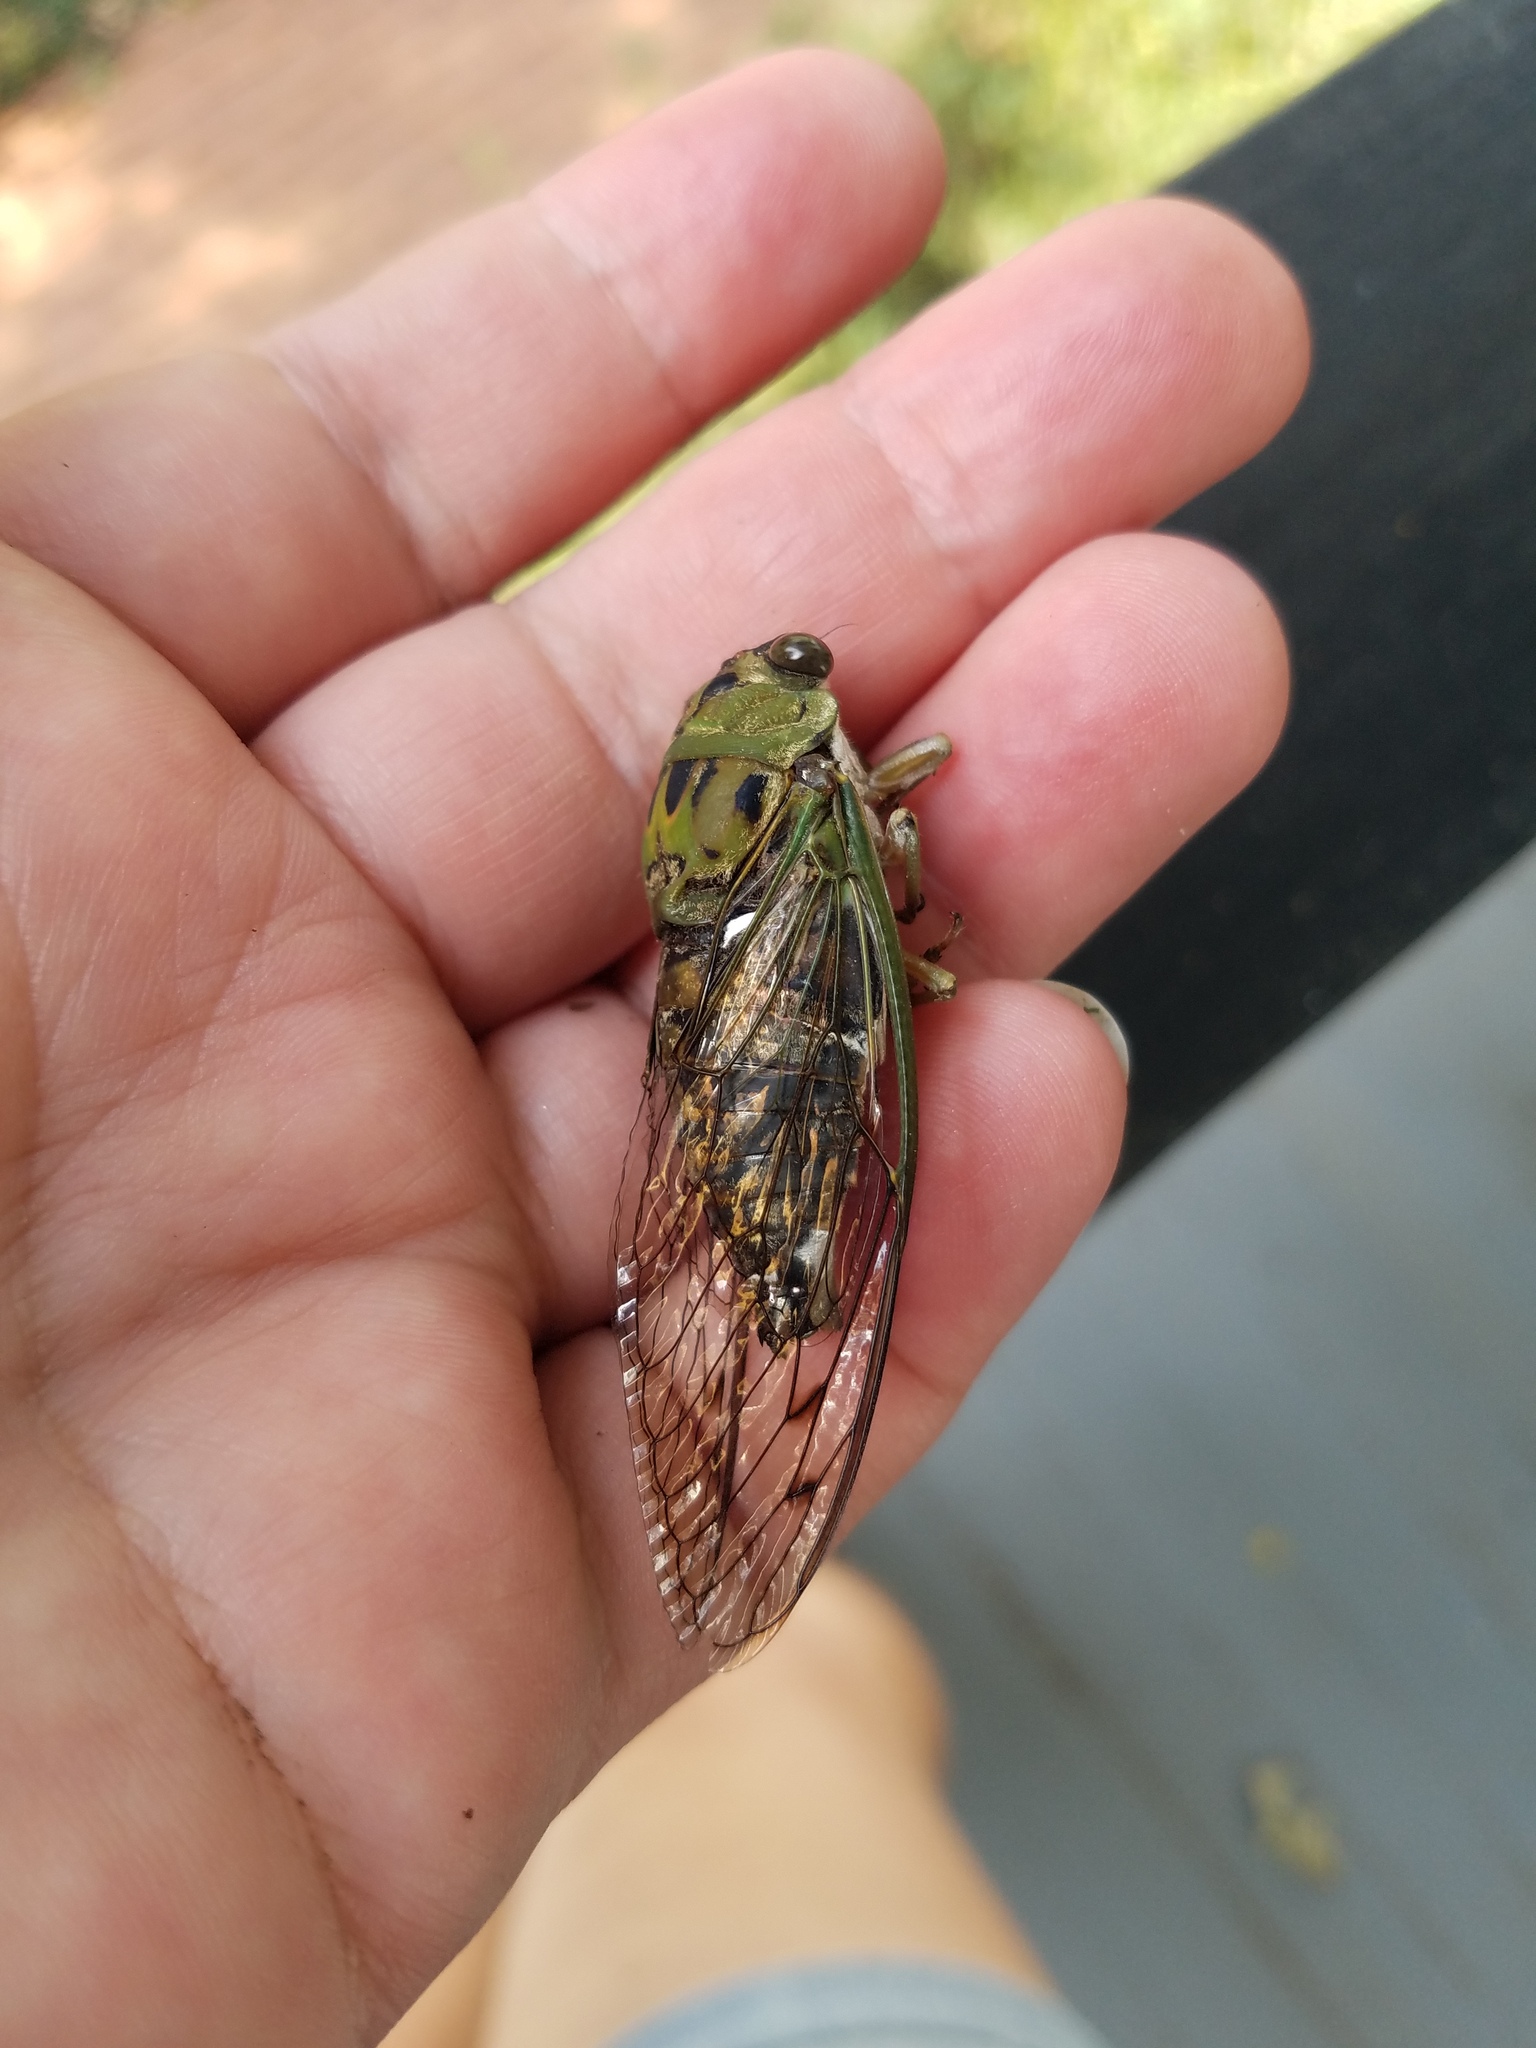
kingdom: Animalia
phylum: Arthropoda
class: Insecta
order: Hemiptera
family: Cicadidae
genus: Neotibicen
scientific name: Neotibicen winnemanna
